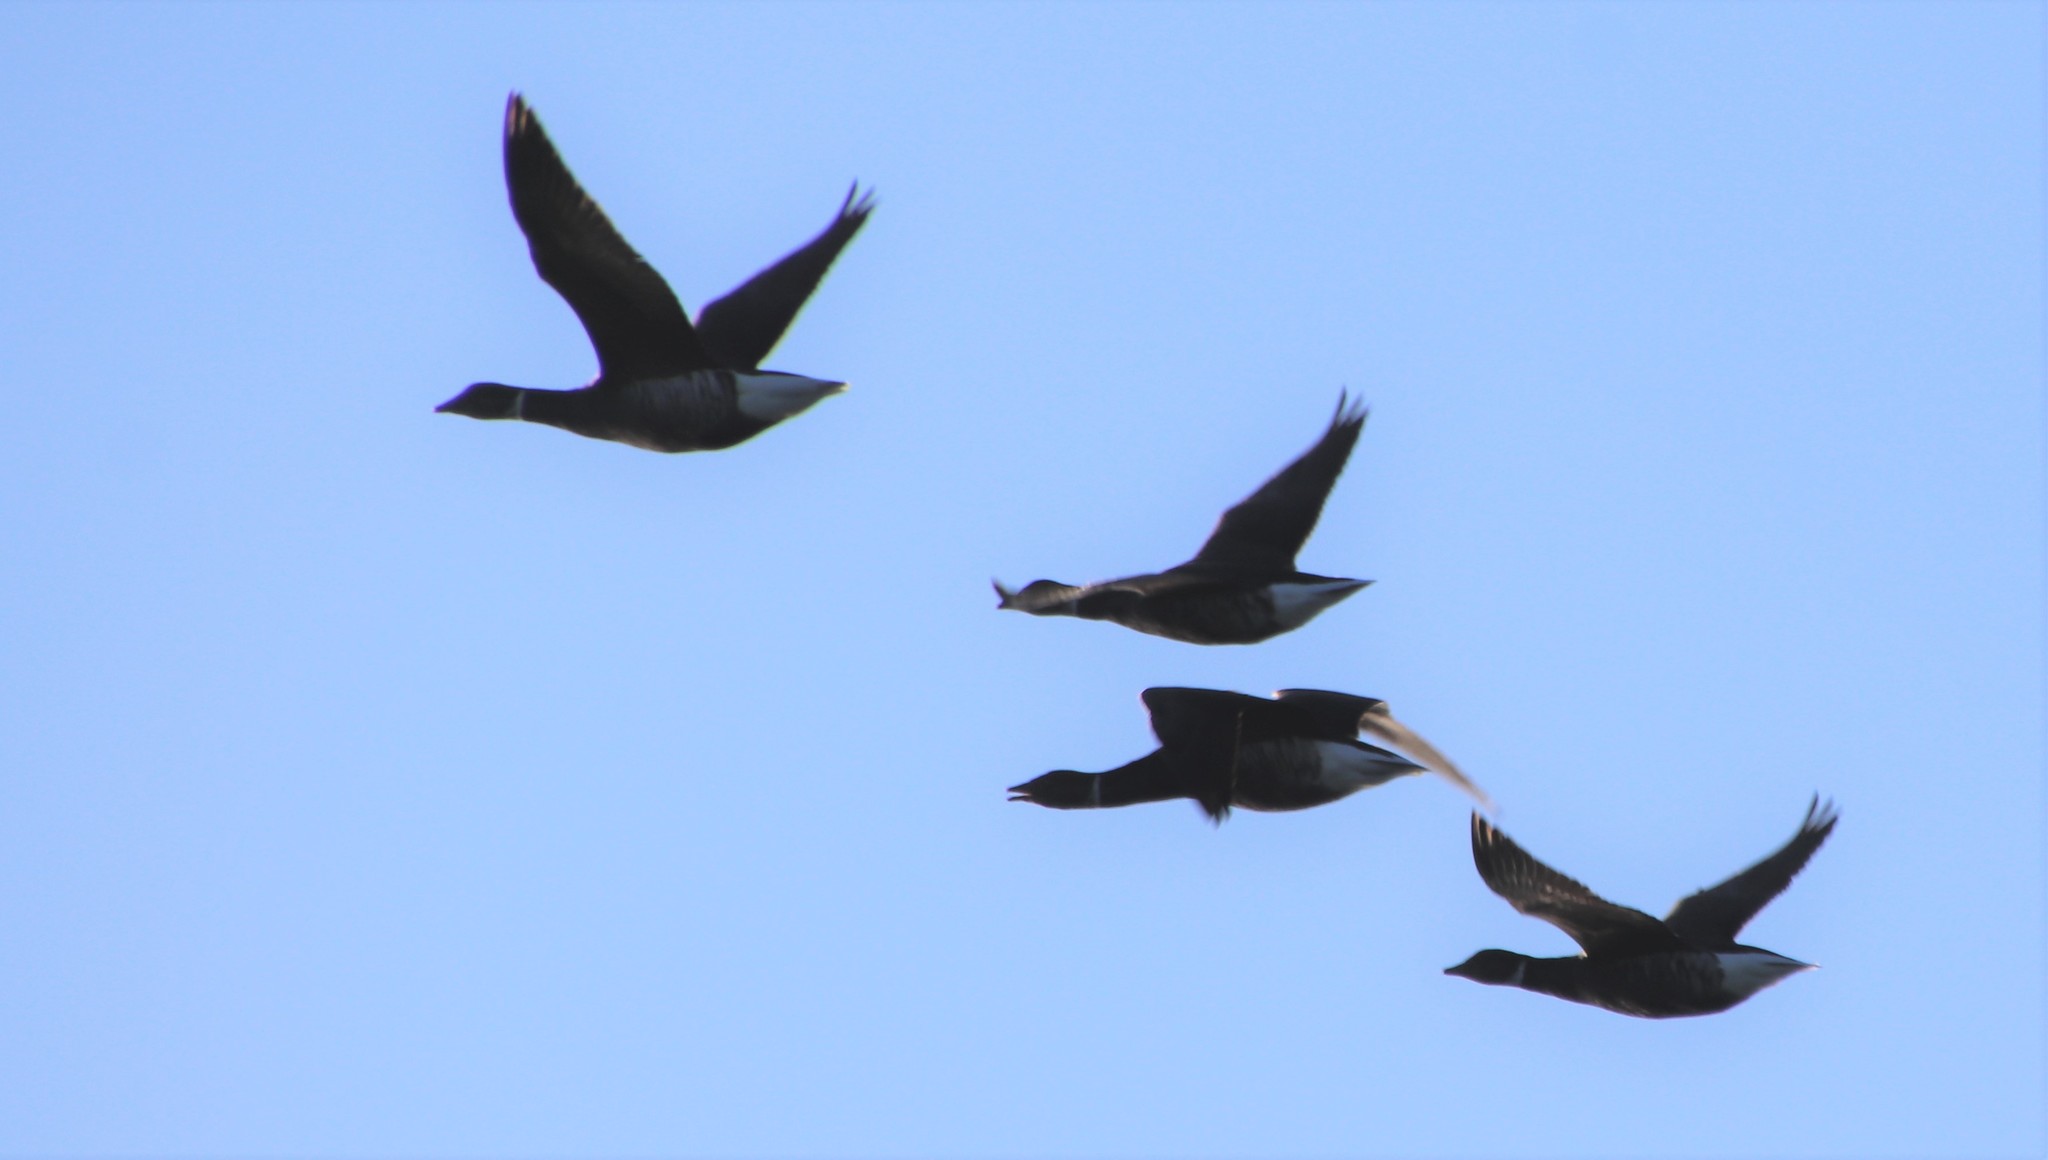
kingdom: Animalia
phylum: Chordata
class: Aves
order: Anseriformes
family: Anatidae
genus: Branta
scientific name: Branta bernicla
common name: Brant goose
